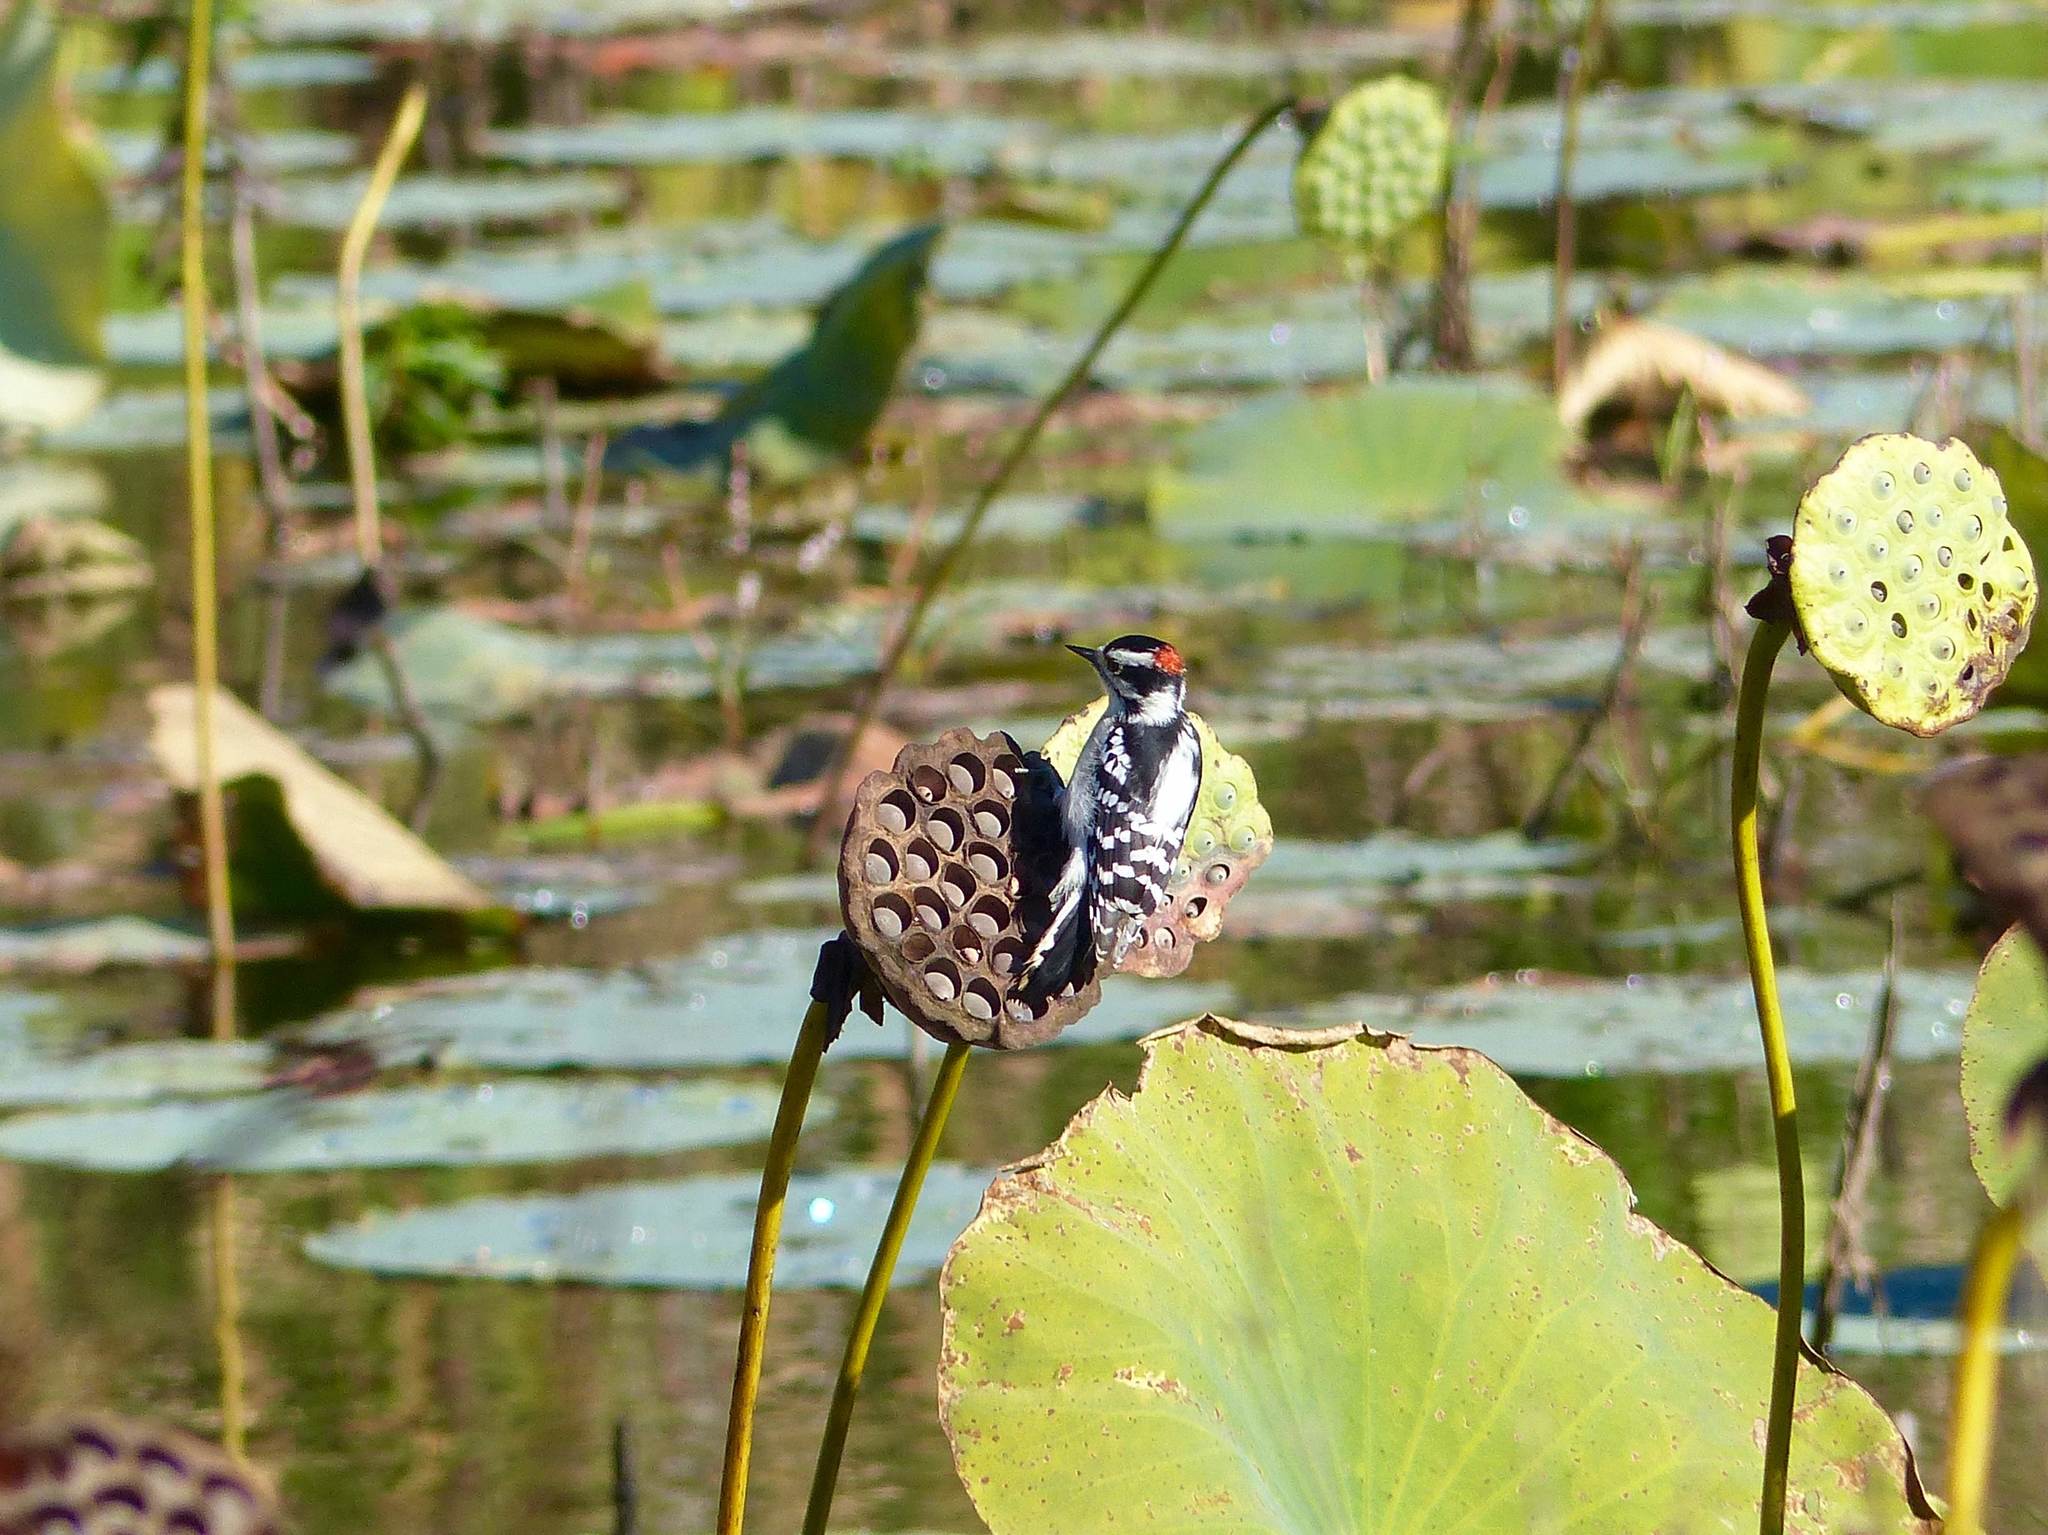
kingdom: Animalia
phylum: Chordata
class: Aves
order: Piciformes
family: Picidae
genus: Dryobates
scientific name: Dryobates pubescens
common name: Downy woodpecker
